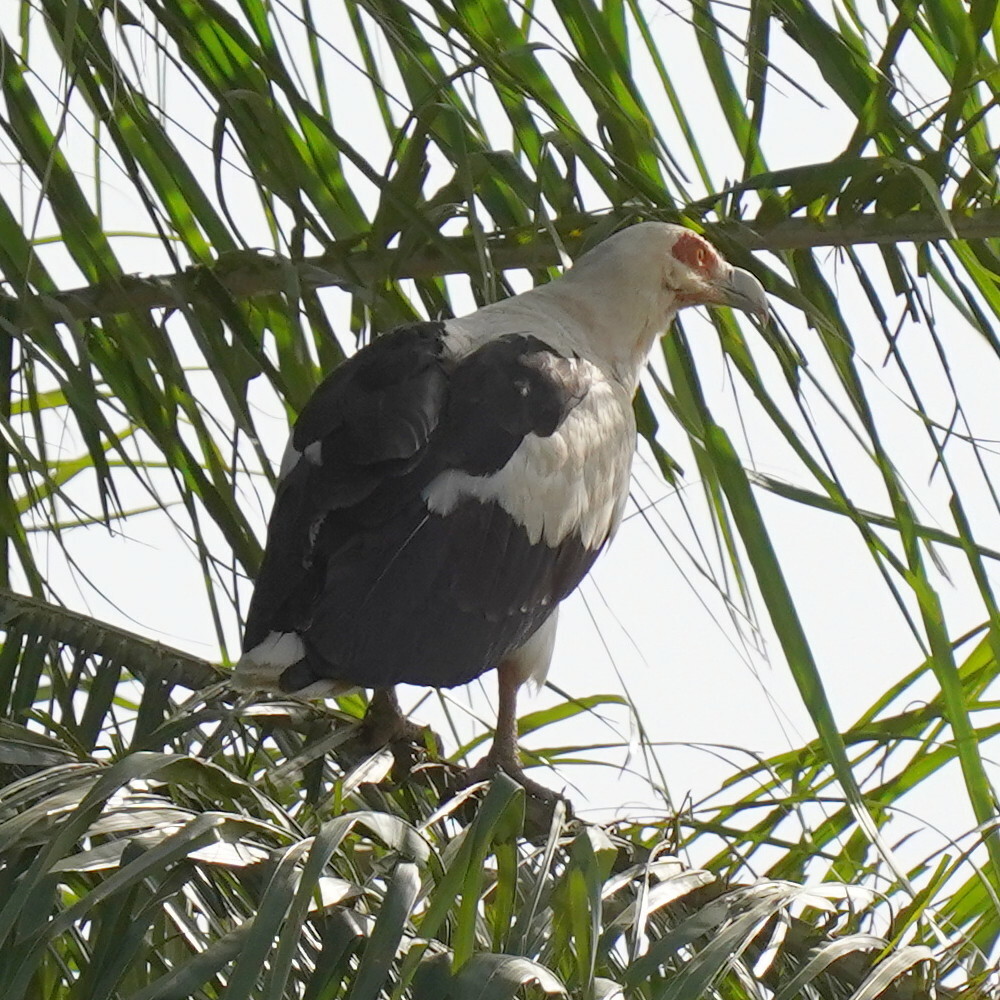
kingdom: Animalia
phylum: Chordata
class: Aves
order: Accipitriformes
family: Accipitridae
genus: Gypohierax
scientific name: Gypohierax angolensis
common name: Palm-nut vulture
